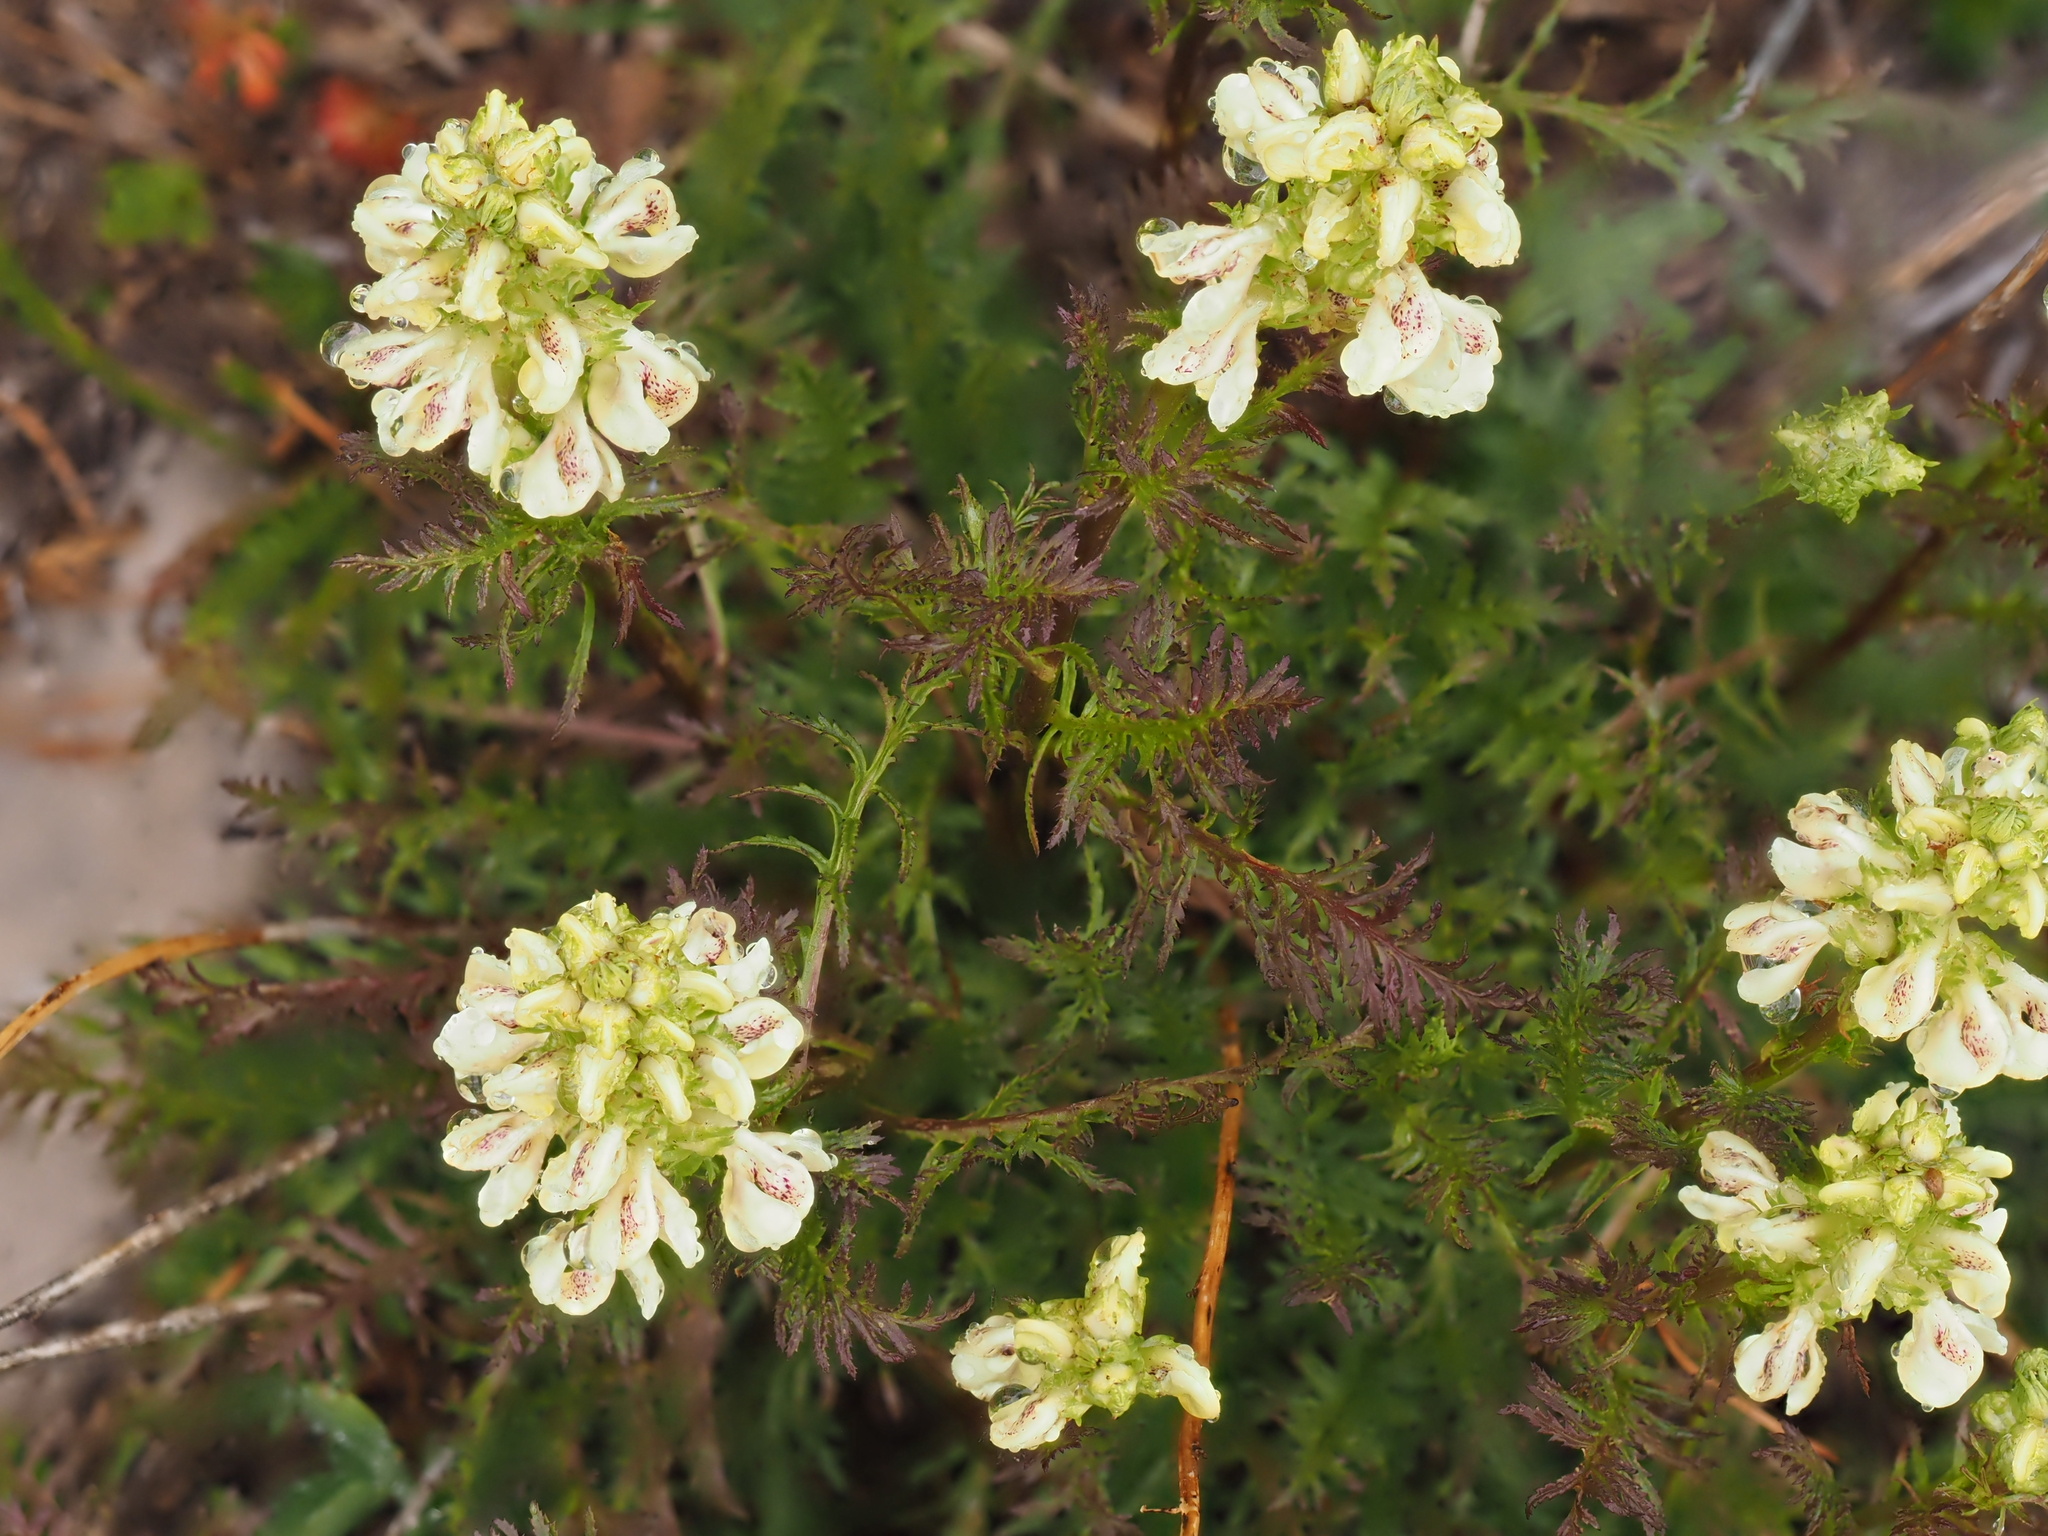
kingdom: Plantae
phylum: Tracheophyta
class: Magnoliopsida
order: Lamiales
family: Orobanchaceae
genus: Pedicularis
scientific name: Pedicularis contorta
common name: Coiled lousewort
